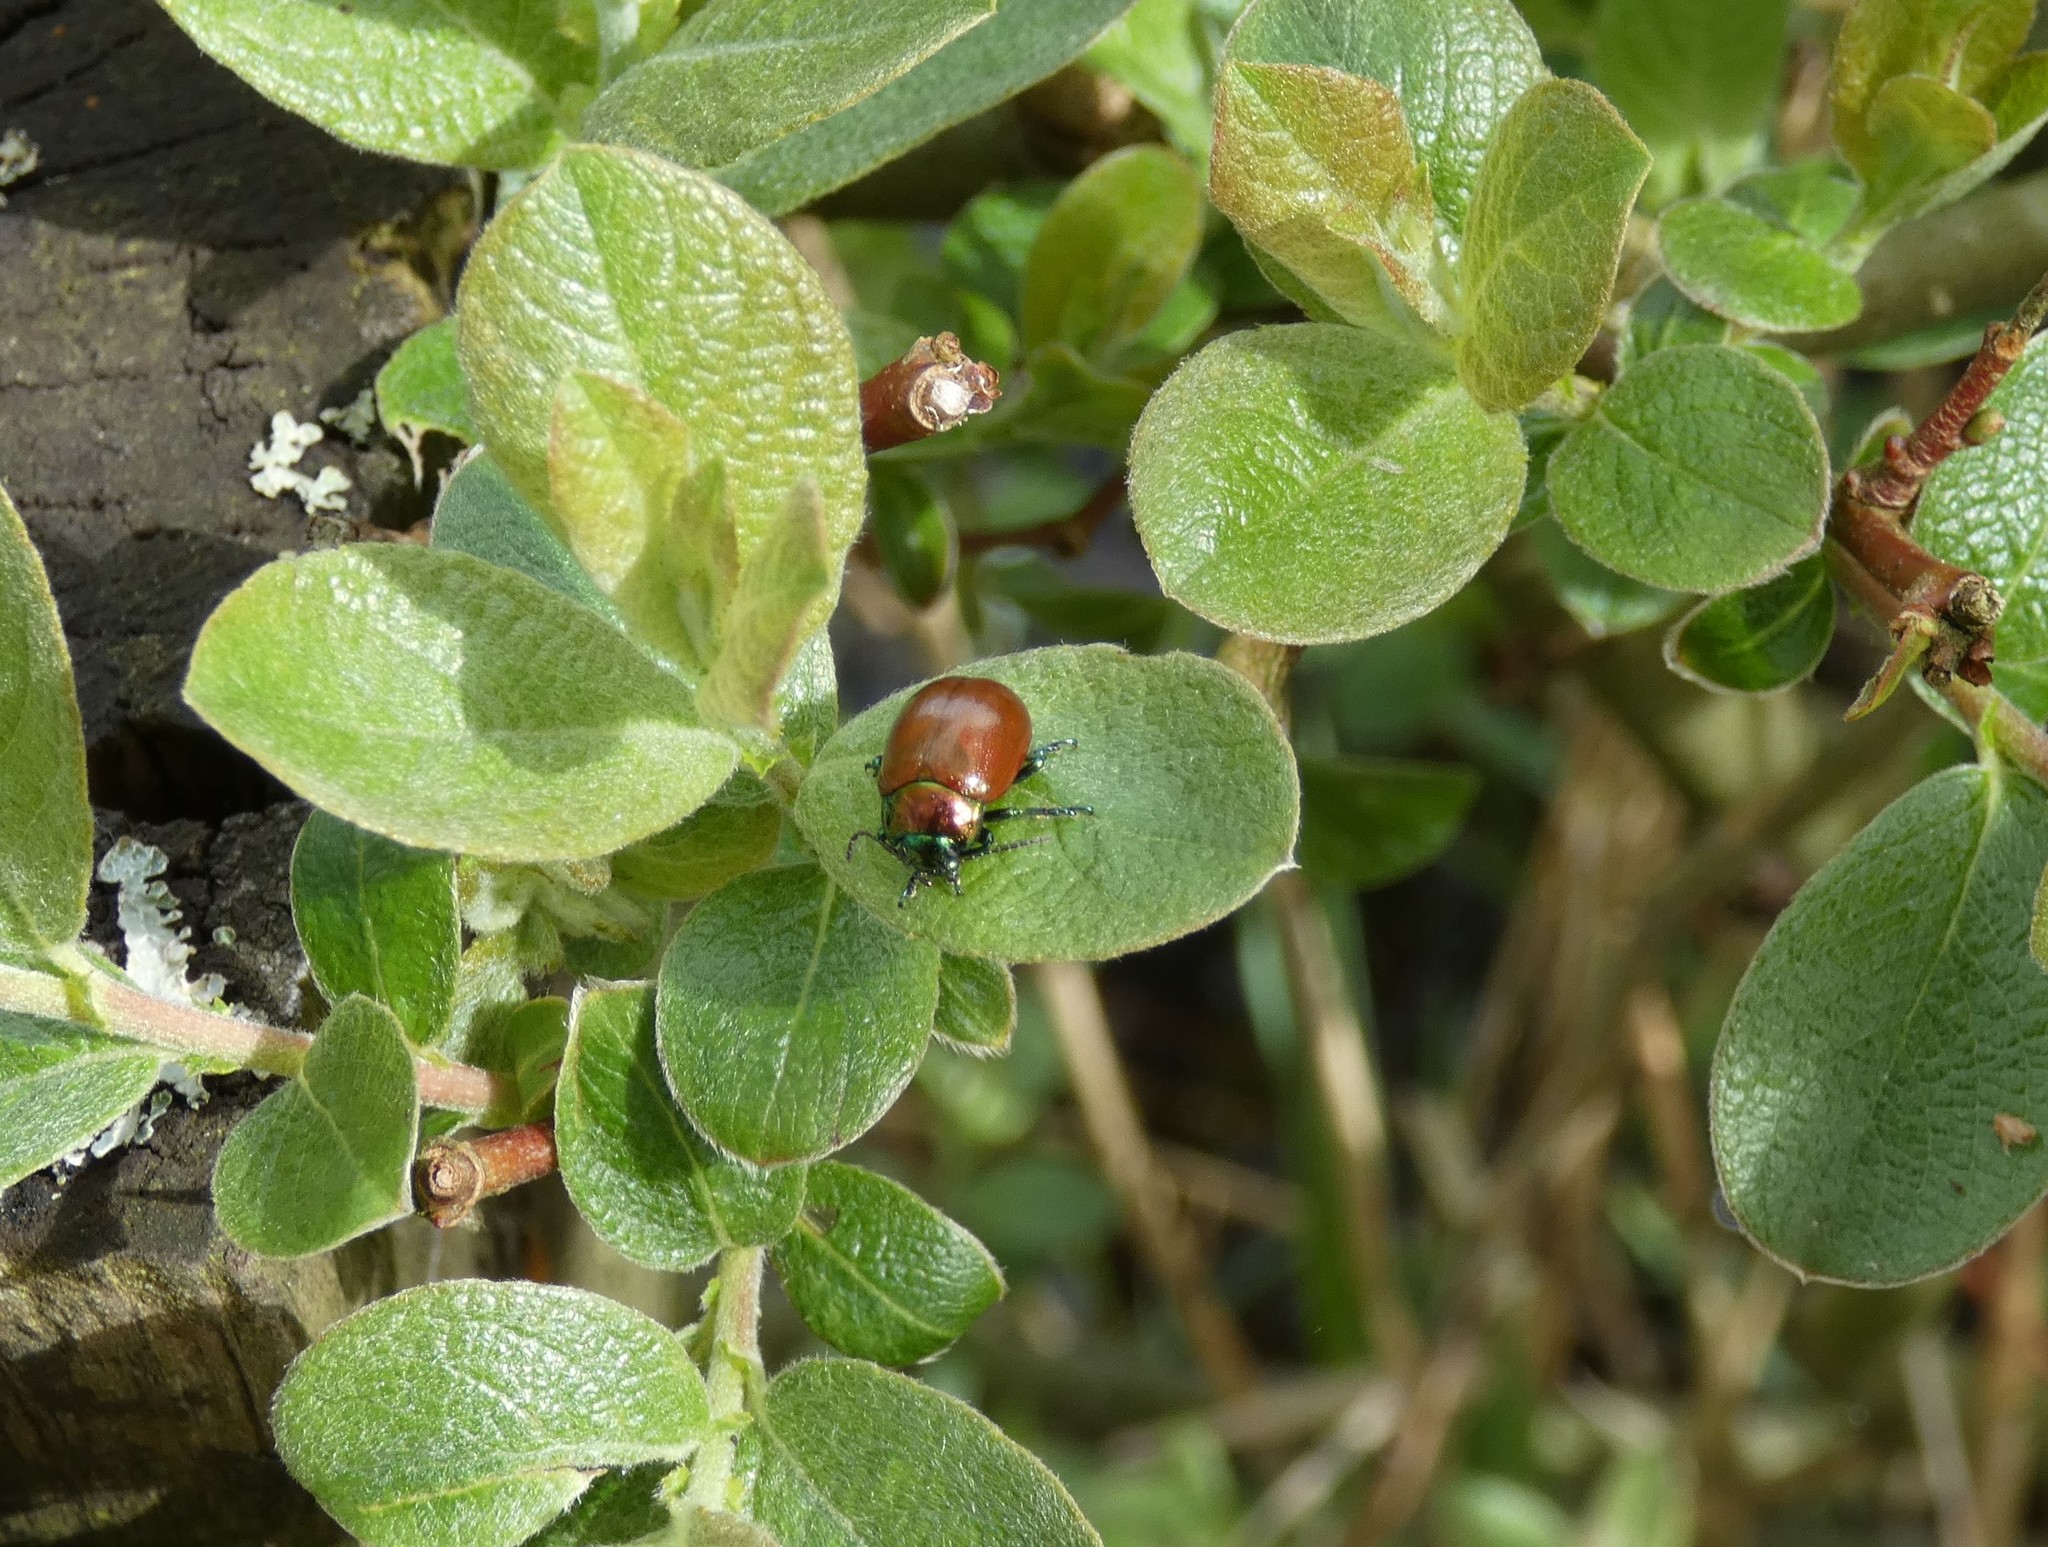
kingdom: Animalia
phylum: Arthropoda
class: Insecta
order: Coleoptera
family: Chrysomelidae
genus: Chrysomela
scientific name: Chrysomela polita
